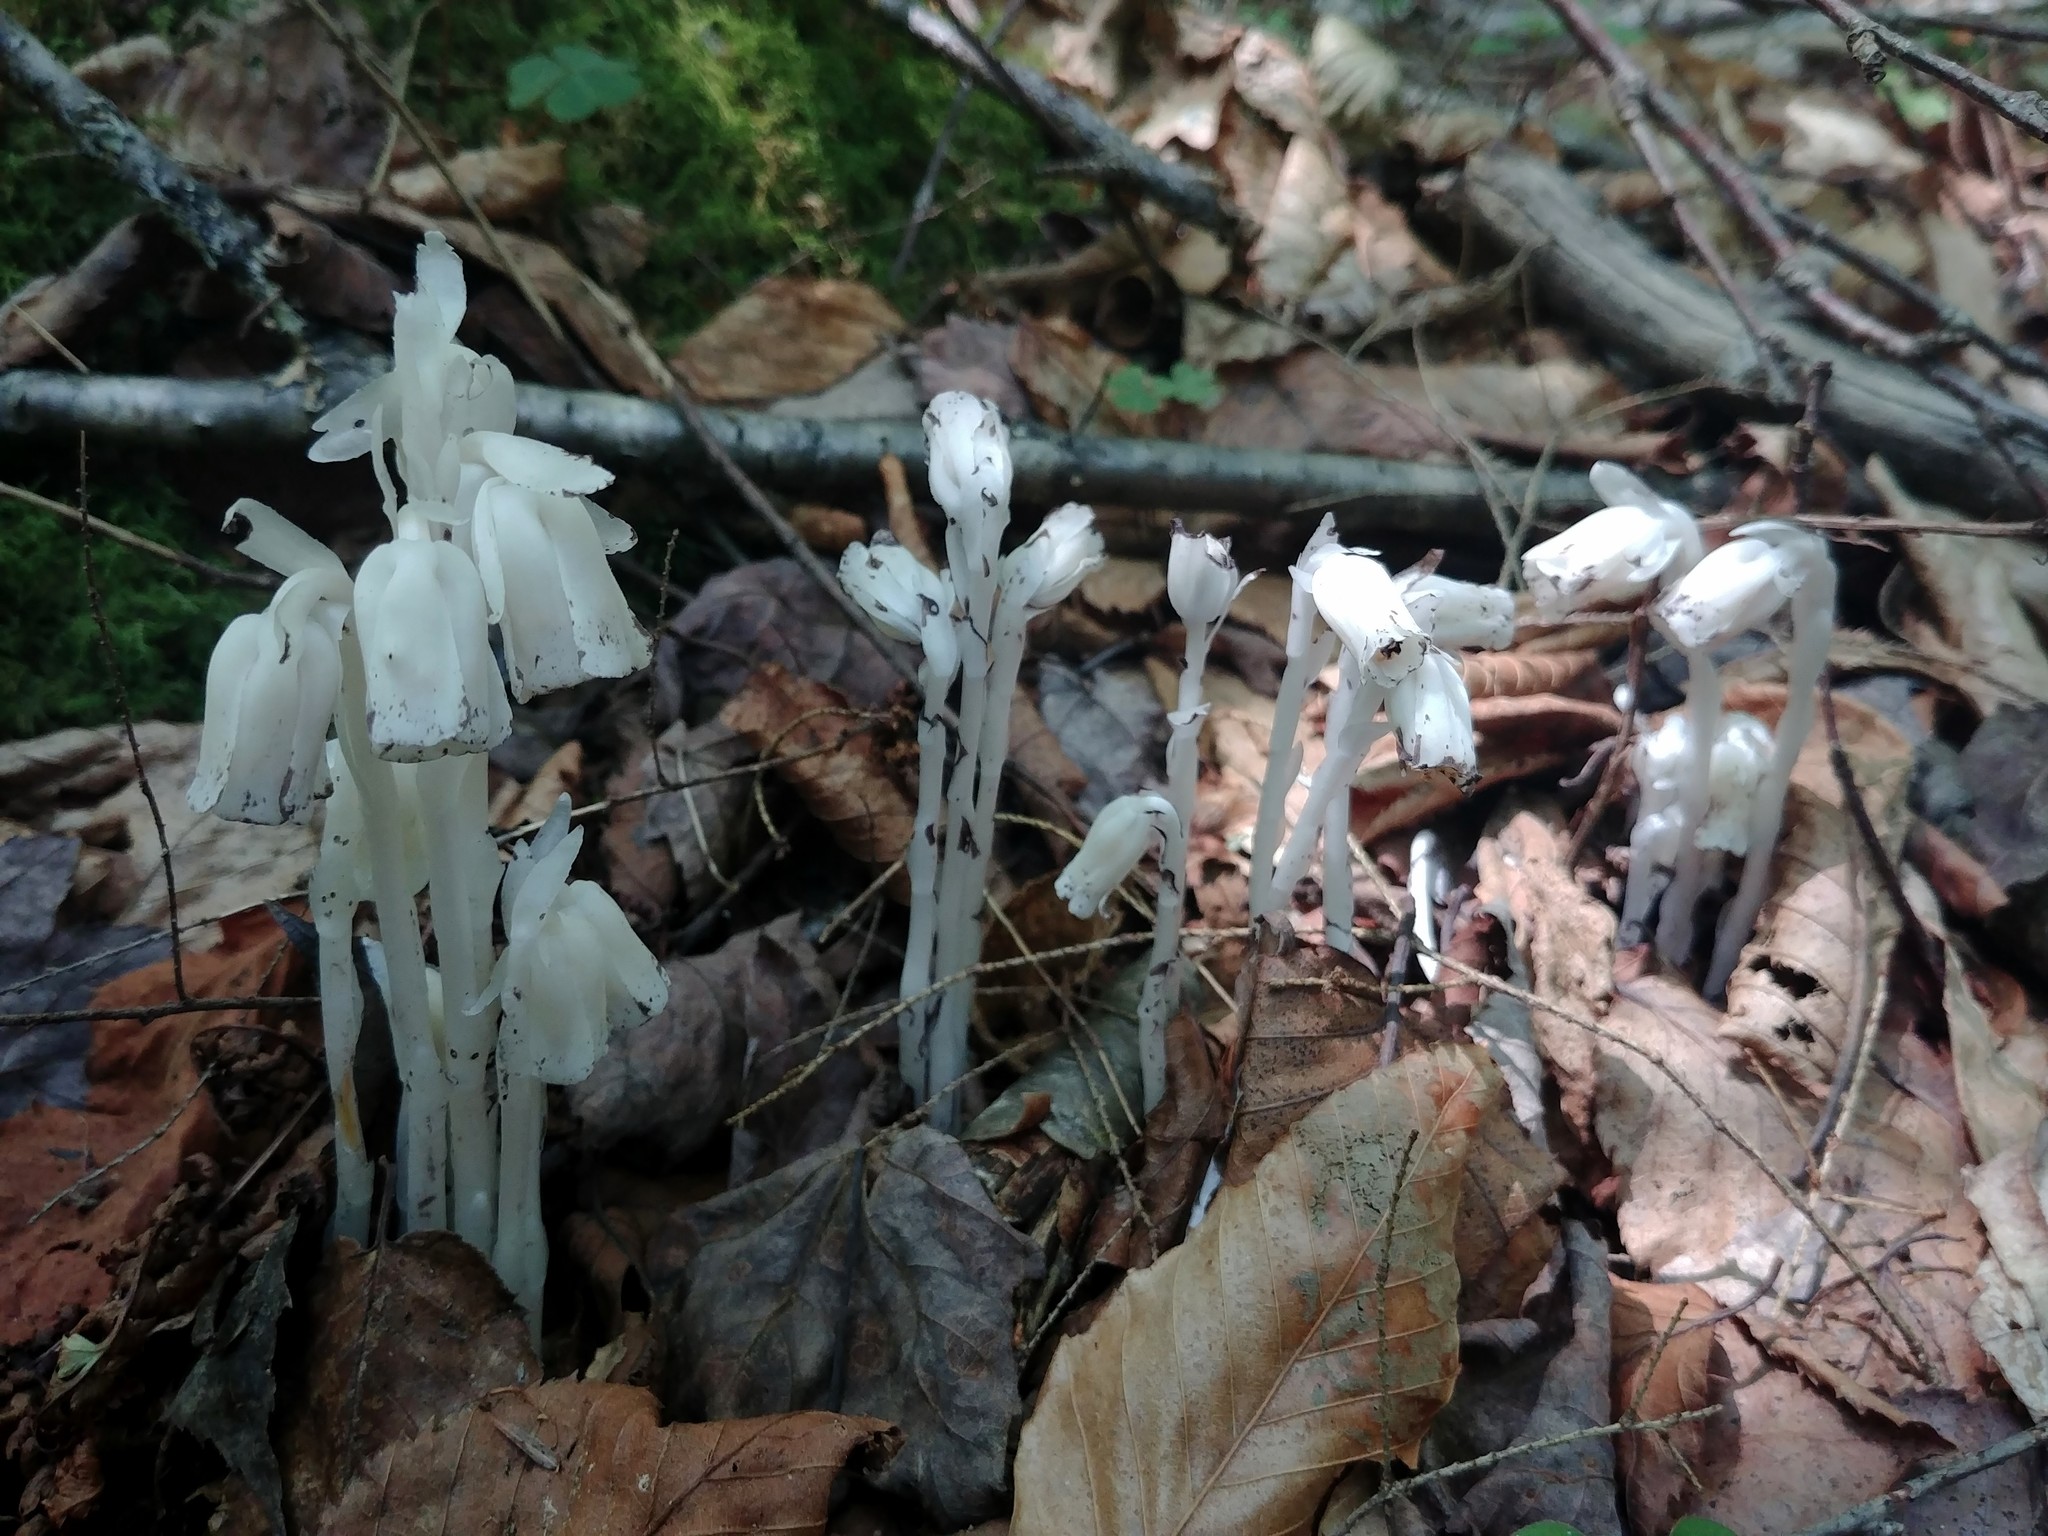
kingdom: Plantae
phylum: Tracheophyta
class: Magnoliopsida
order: Ericales
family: Ericaceae
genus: Monotropa
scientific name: Monotropa uniflora
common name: Convulsion root
